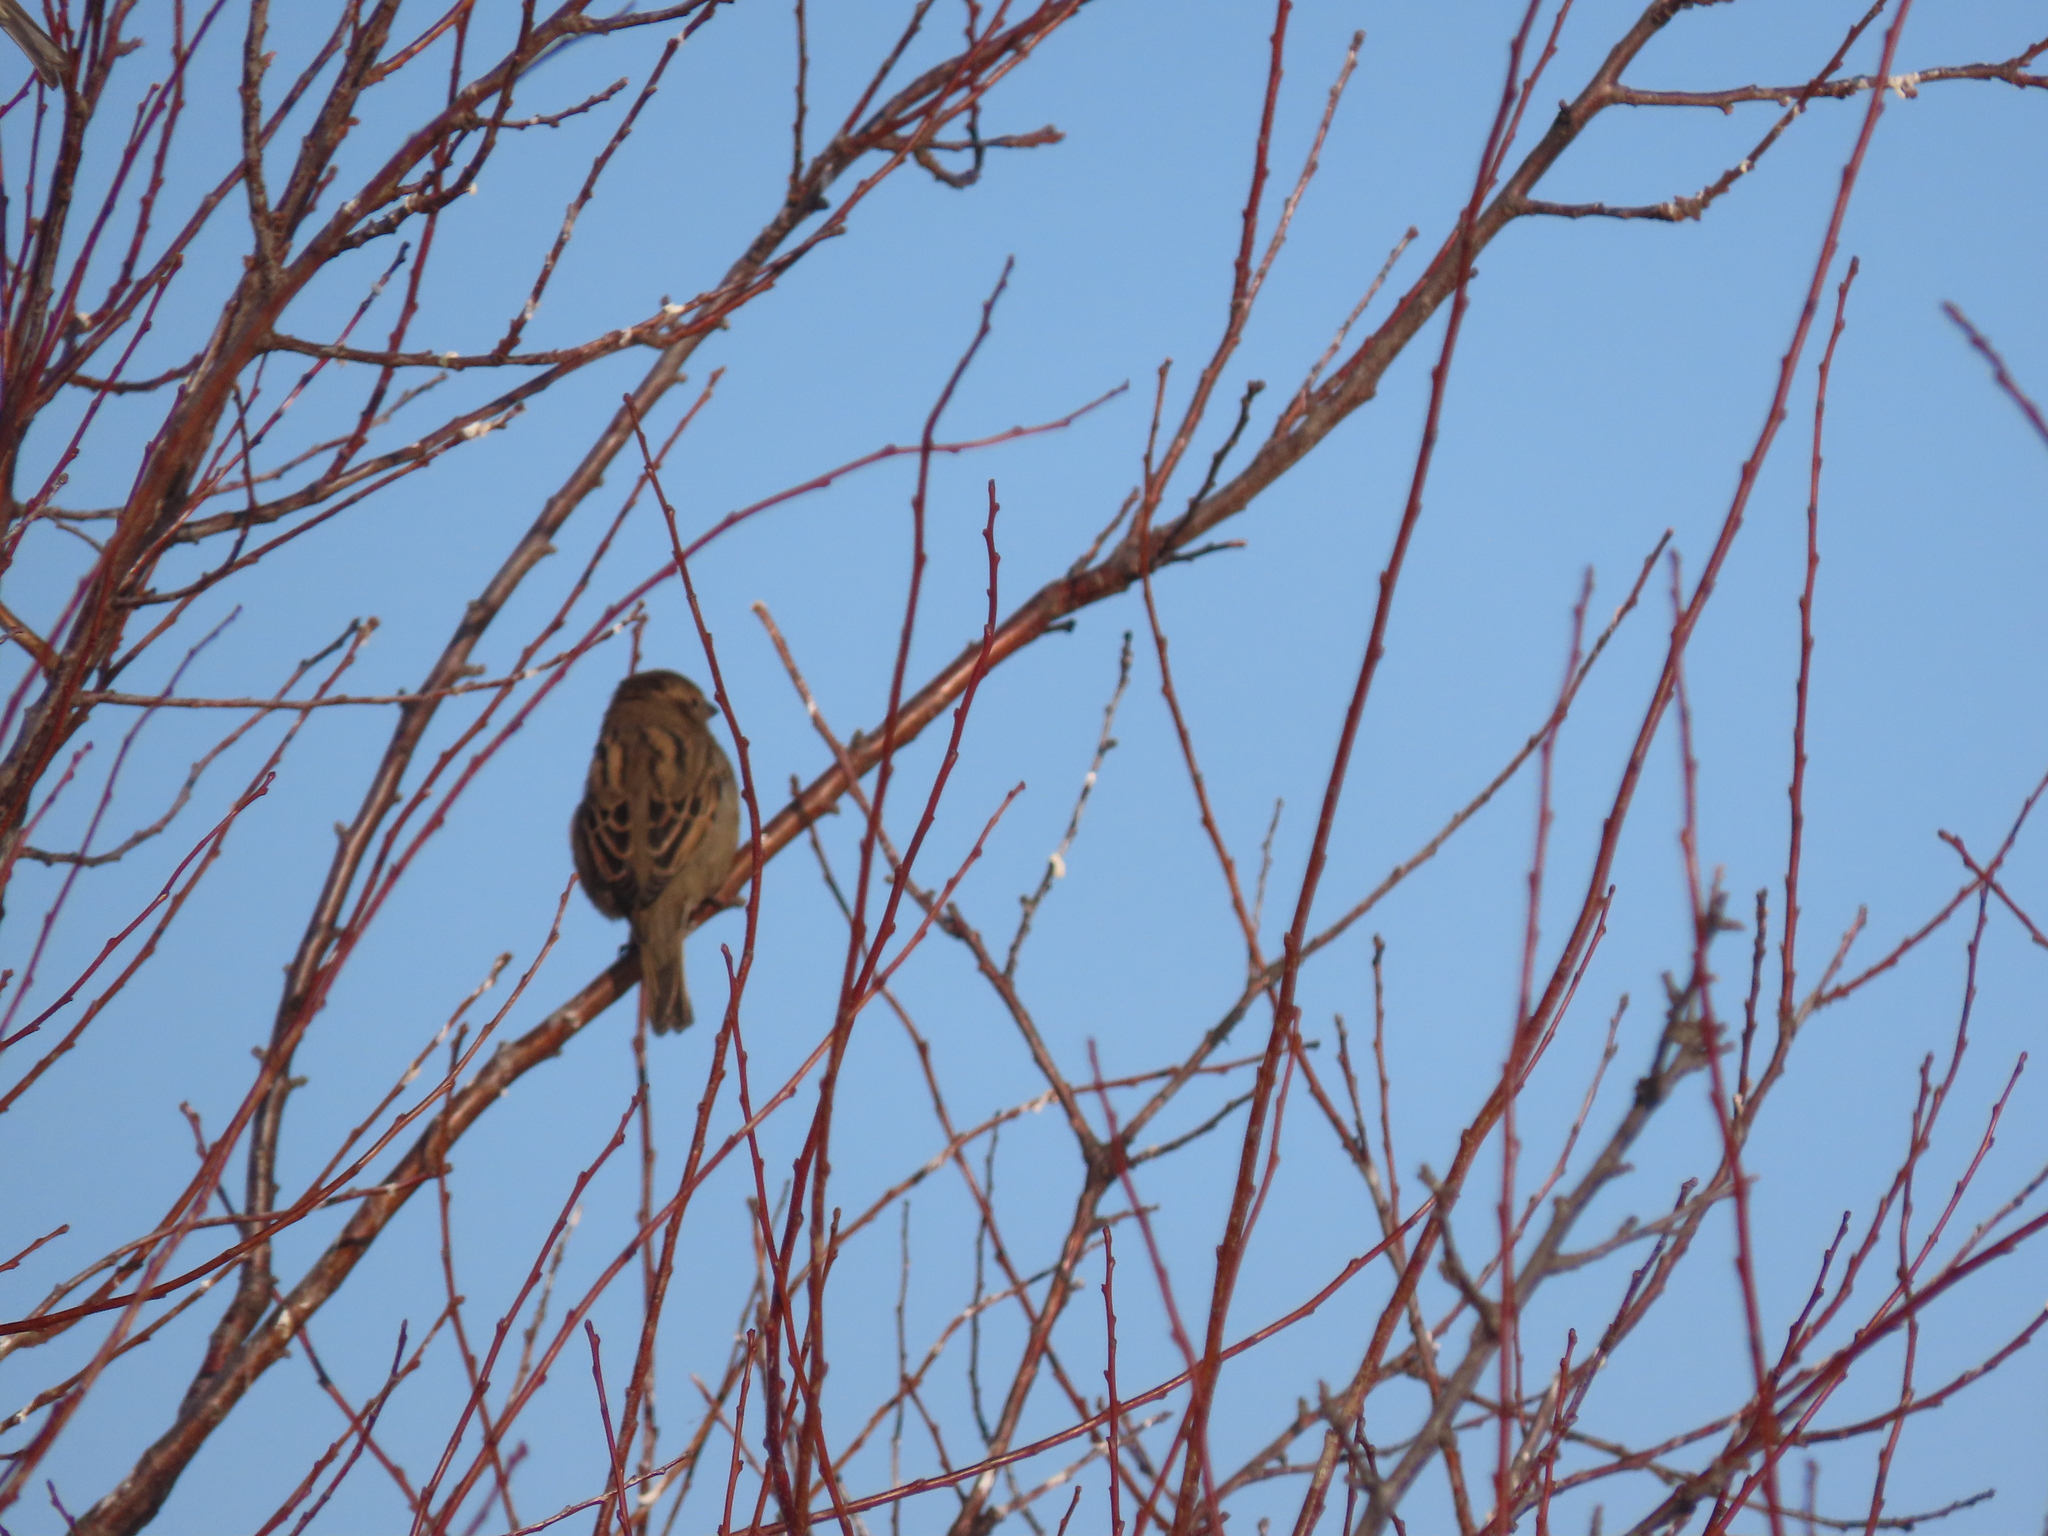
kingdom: Animalia
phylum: Chordata
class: Aves
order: Passeriformes
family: Passeridae
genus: Passer
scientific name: Passer domesticus
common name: House sparrow
